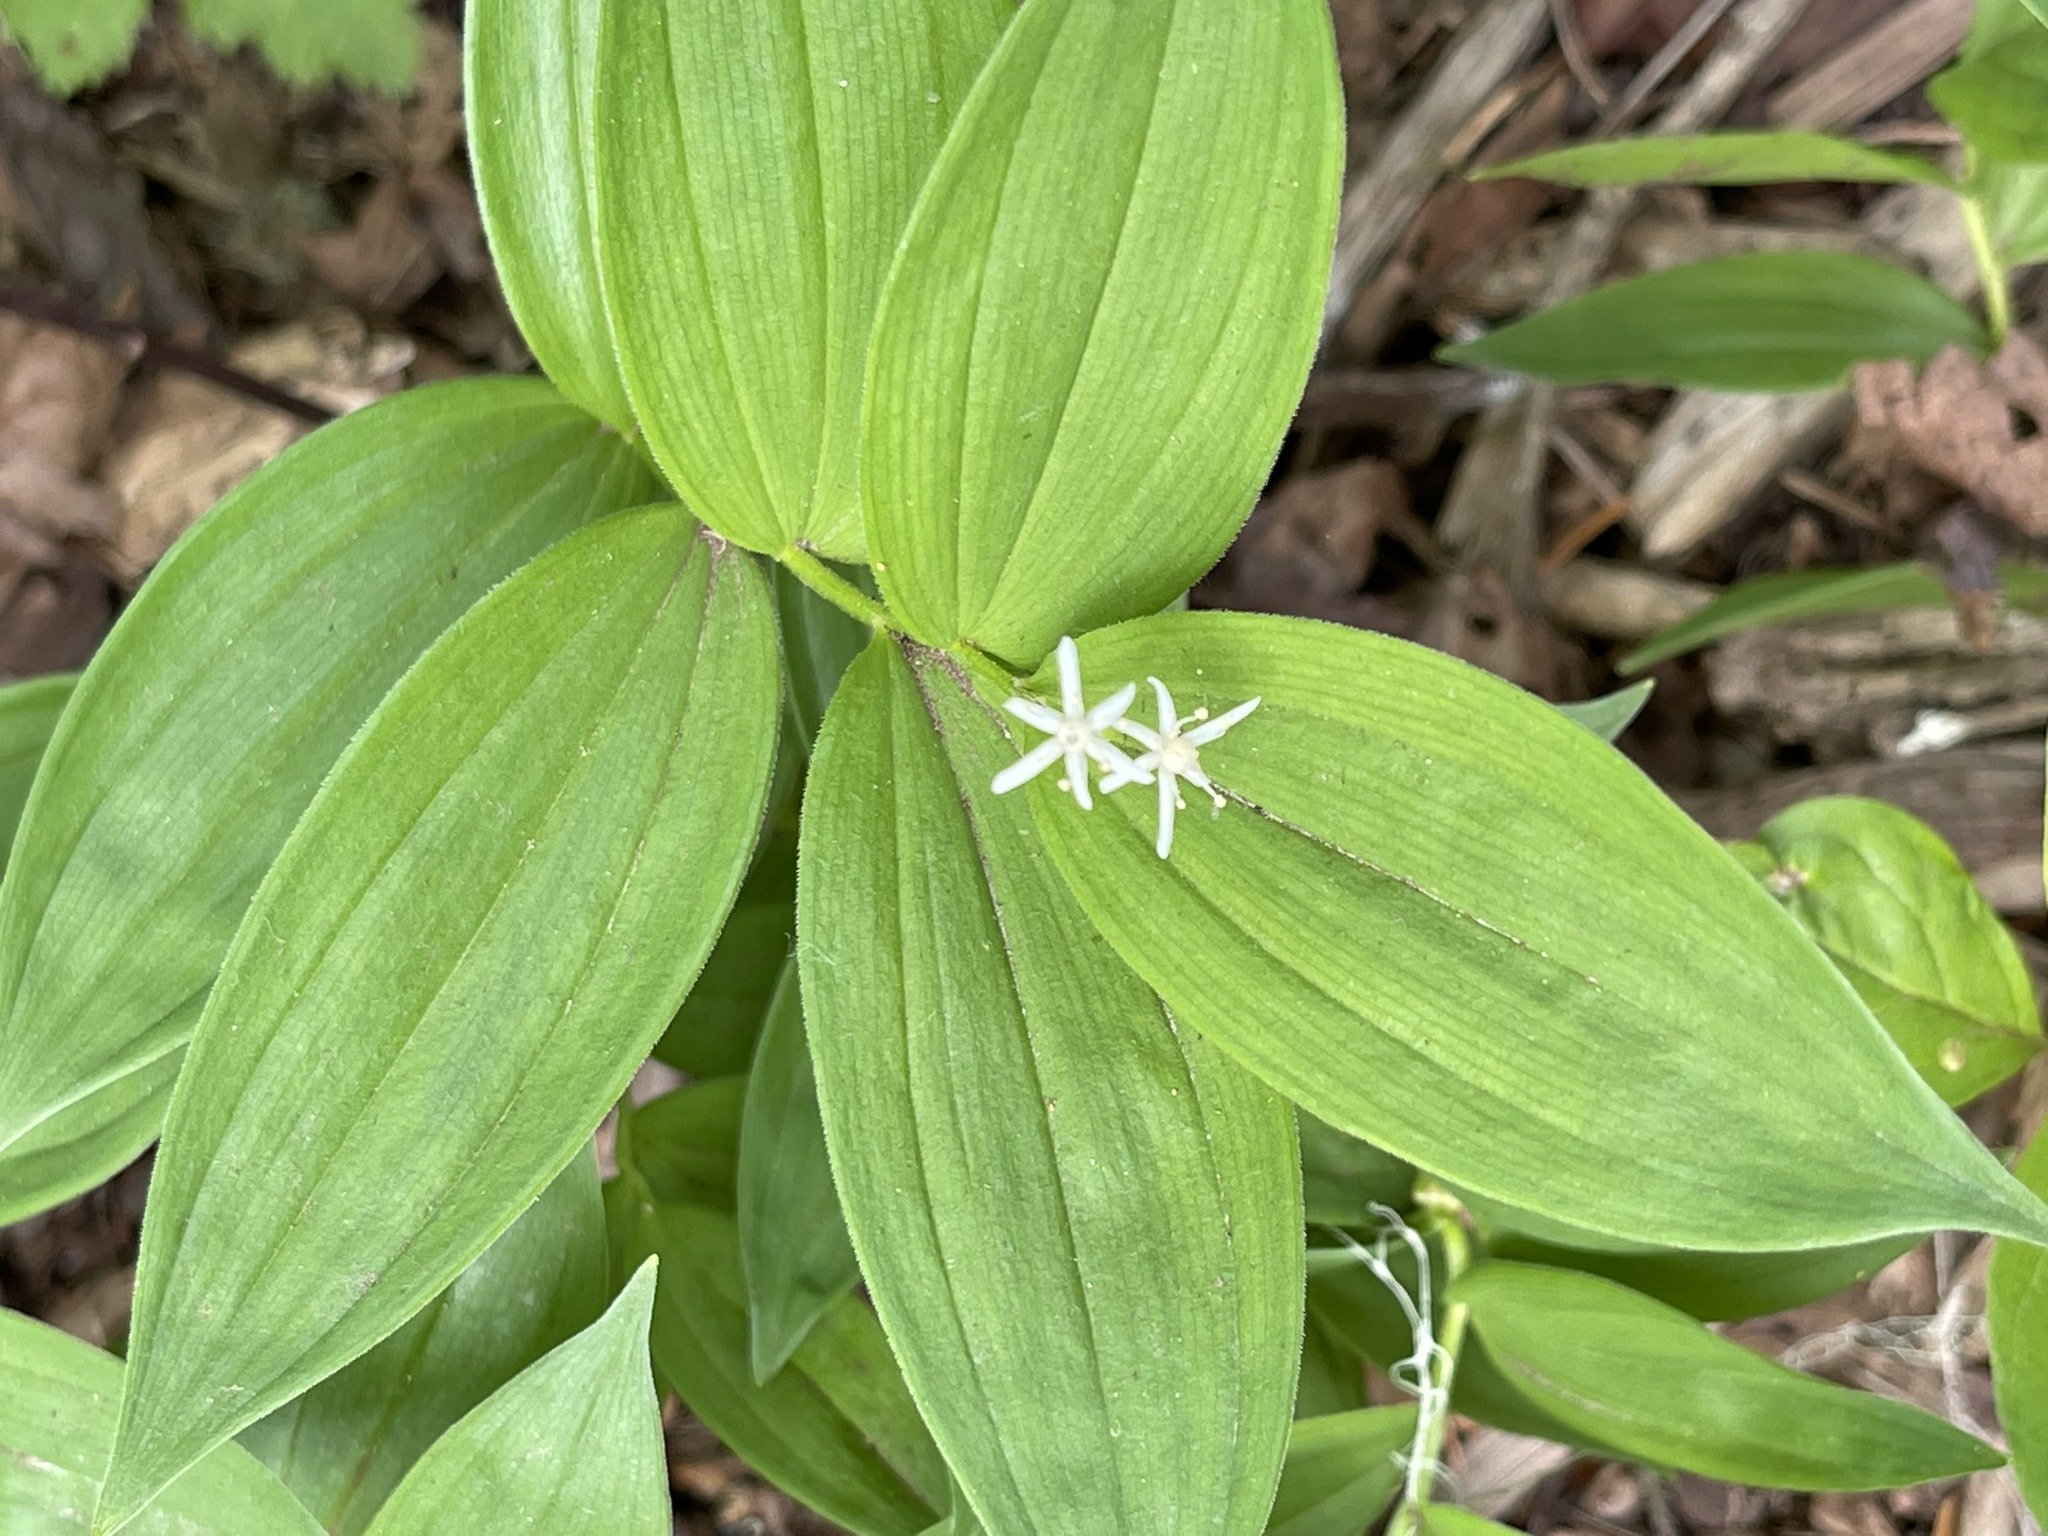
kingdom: Plantae
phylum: Tracheophyta
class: Liliopsida
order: Asparagales
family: Asparagaceae
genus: Maianthemum
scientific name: Maianthemum stellatum
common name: Little false solomon's seal
